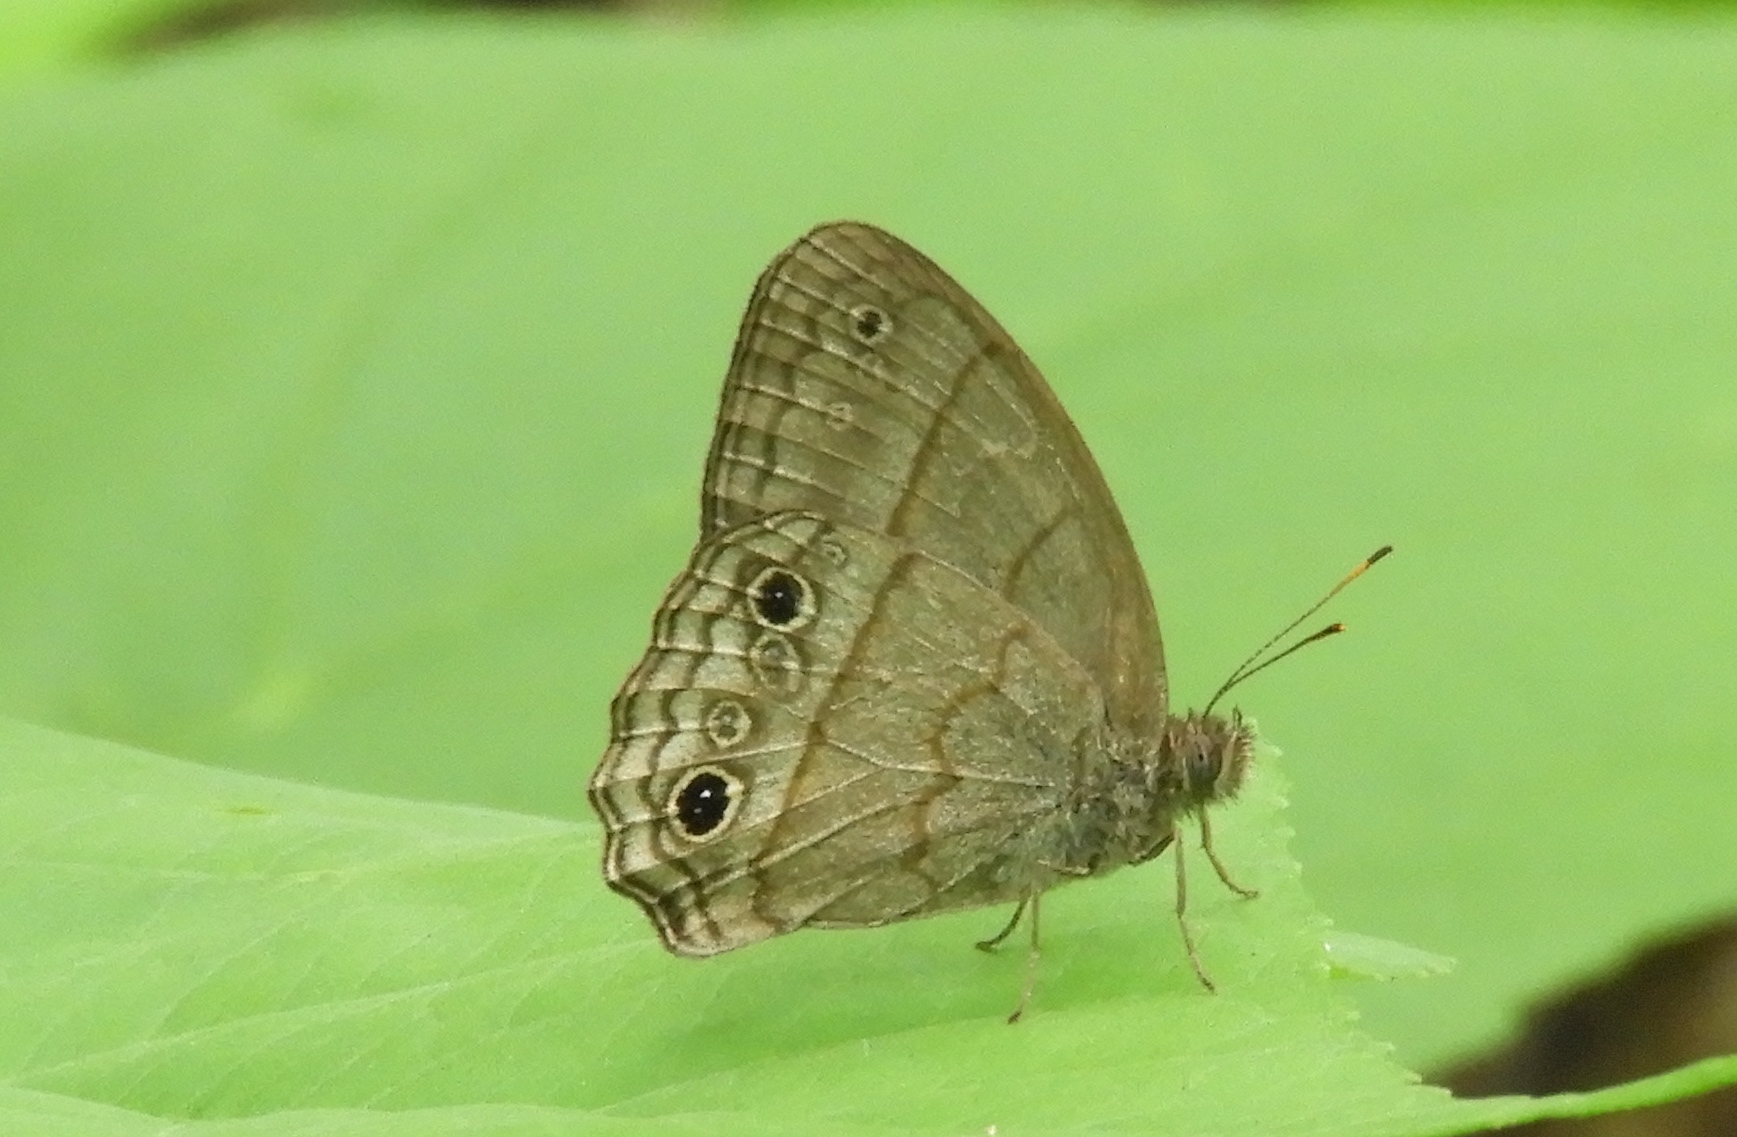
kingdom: Animalia
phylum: Arthropoda
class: Insecta
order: Lepidoptera
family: Nymphalidae
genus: Hermeuptychia
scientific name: Hermeuptychia
